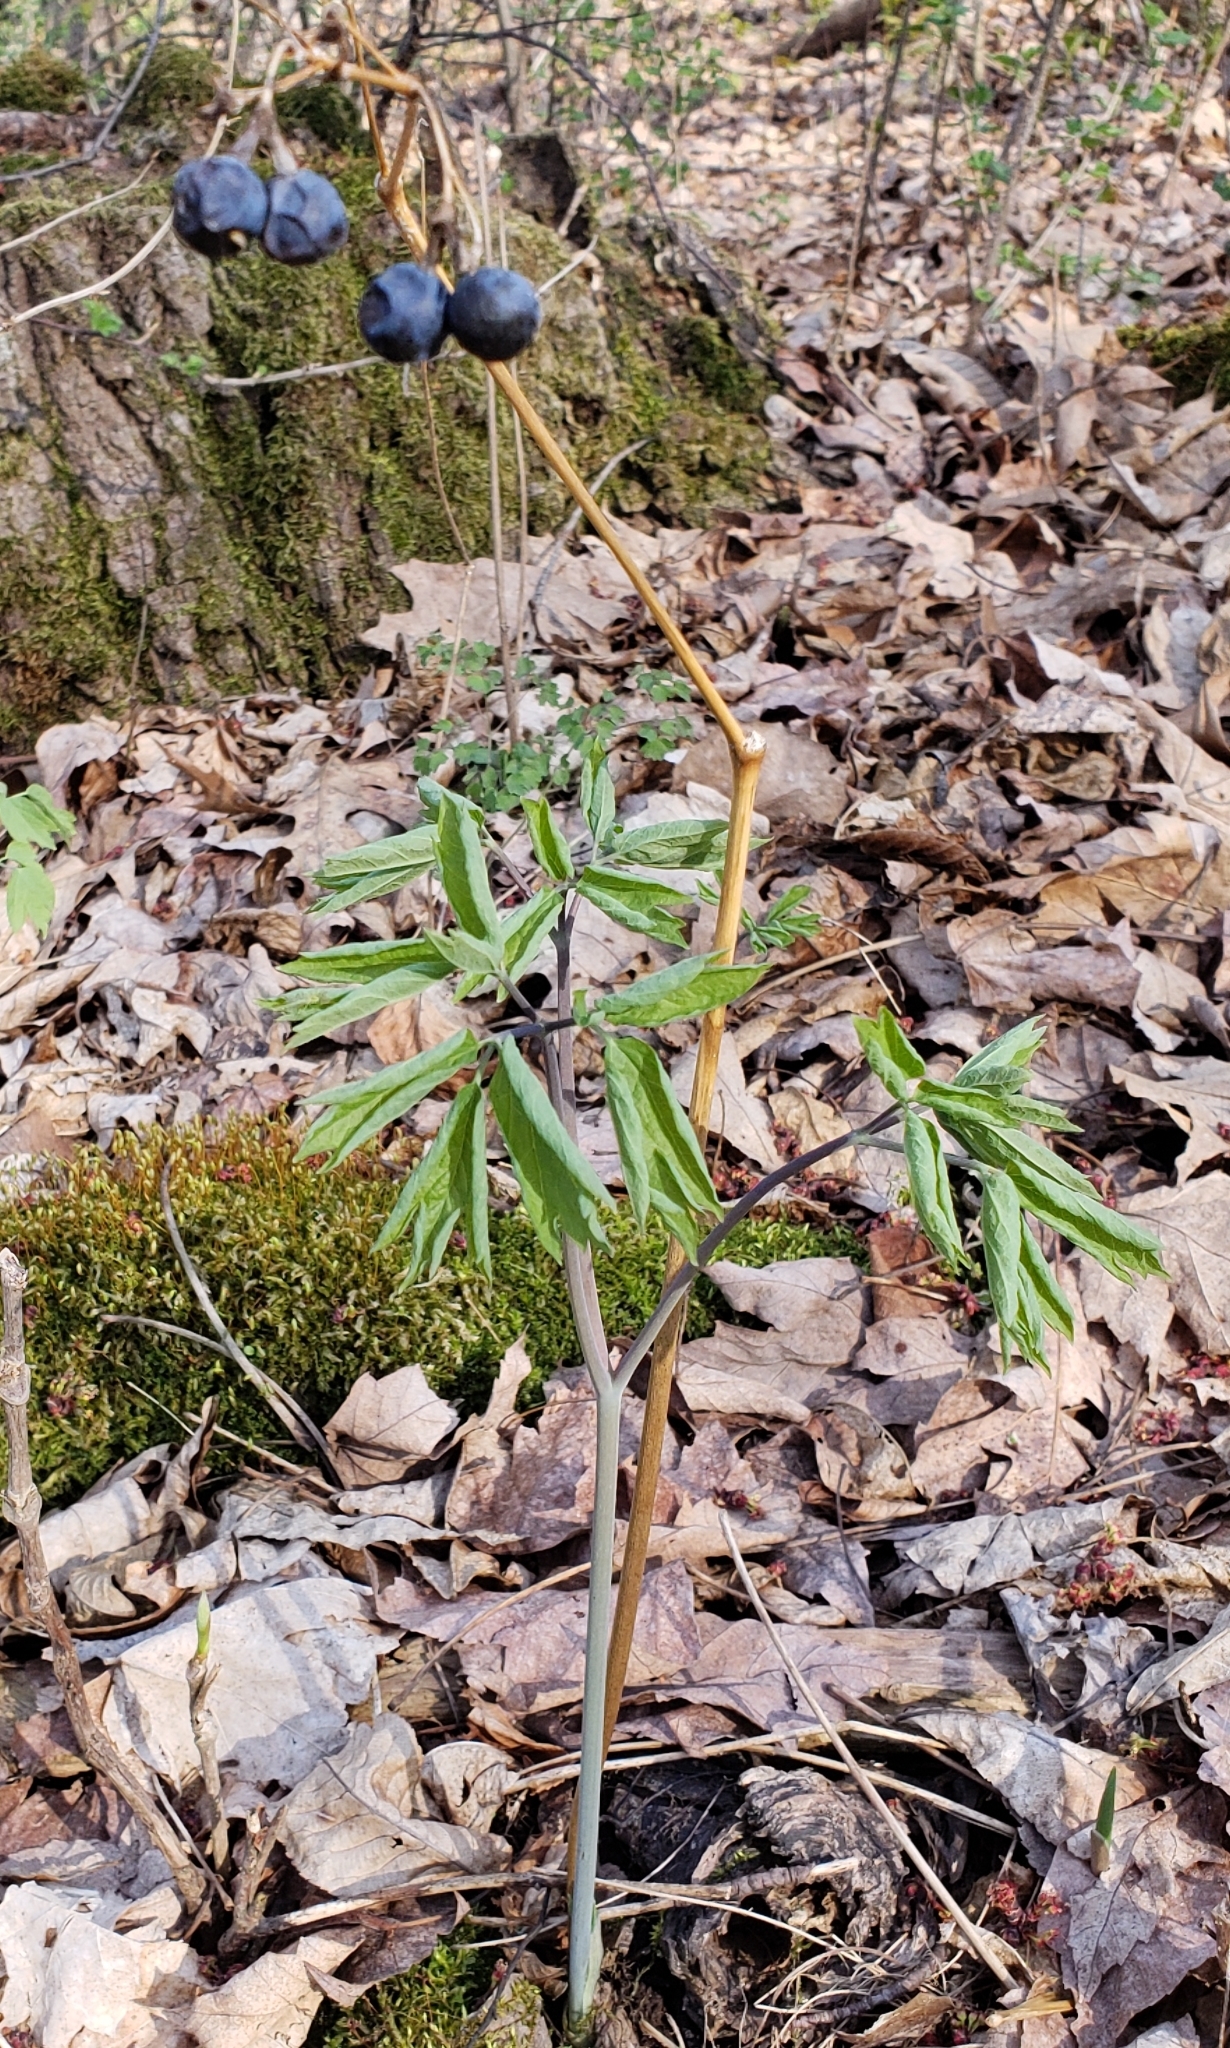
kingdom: Plantae
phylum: Tracheophyta
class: Magnoliopsida
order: Ranunculales
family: Berberidaceae
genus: Caulophyllum
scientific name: Caulophyllum thalictroides
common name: Blue cohosh
